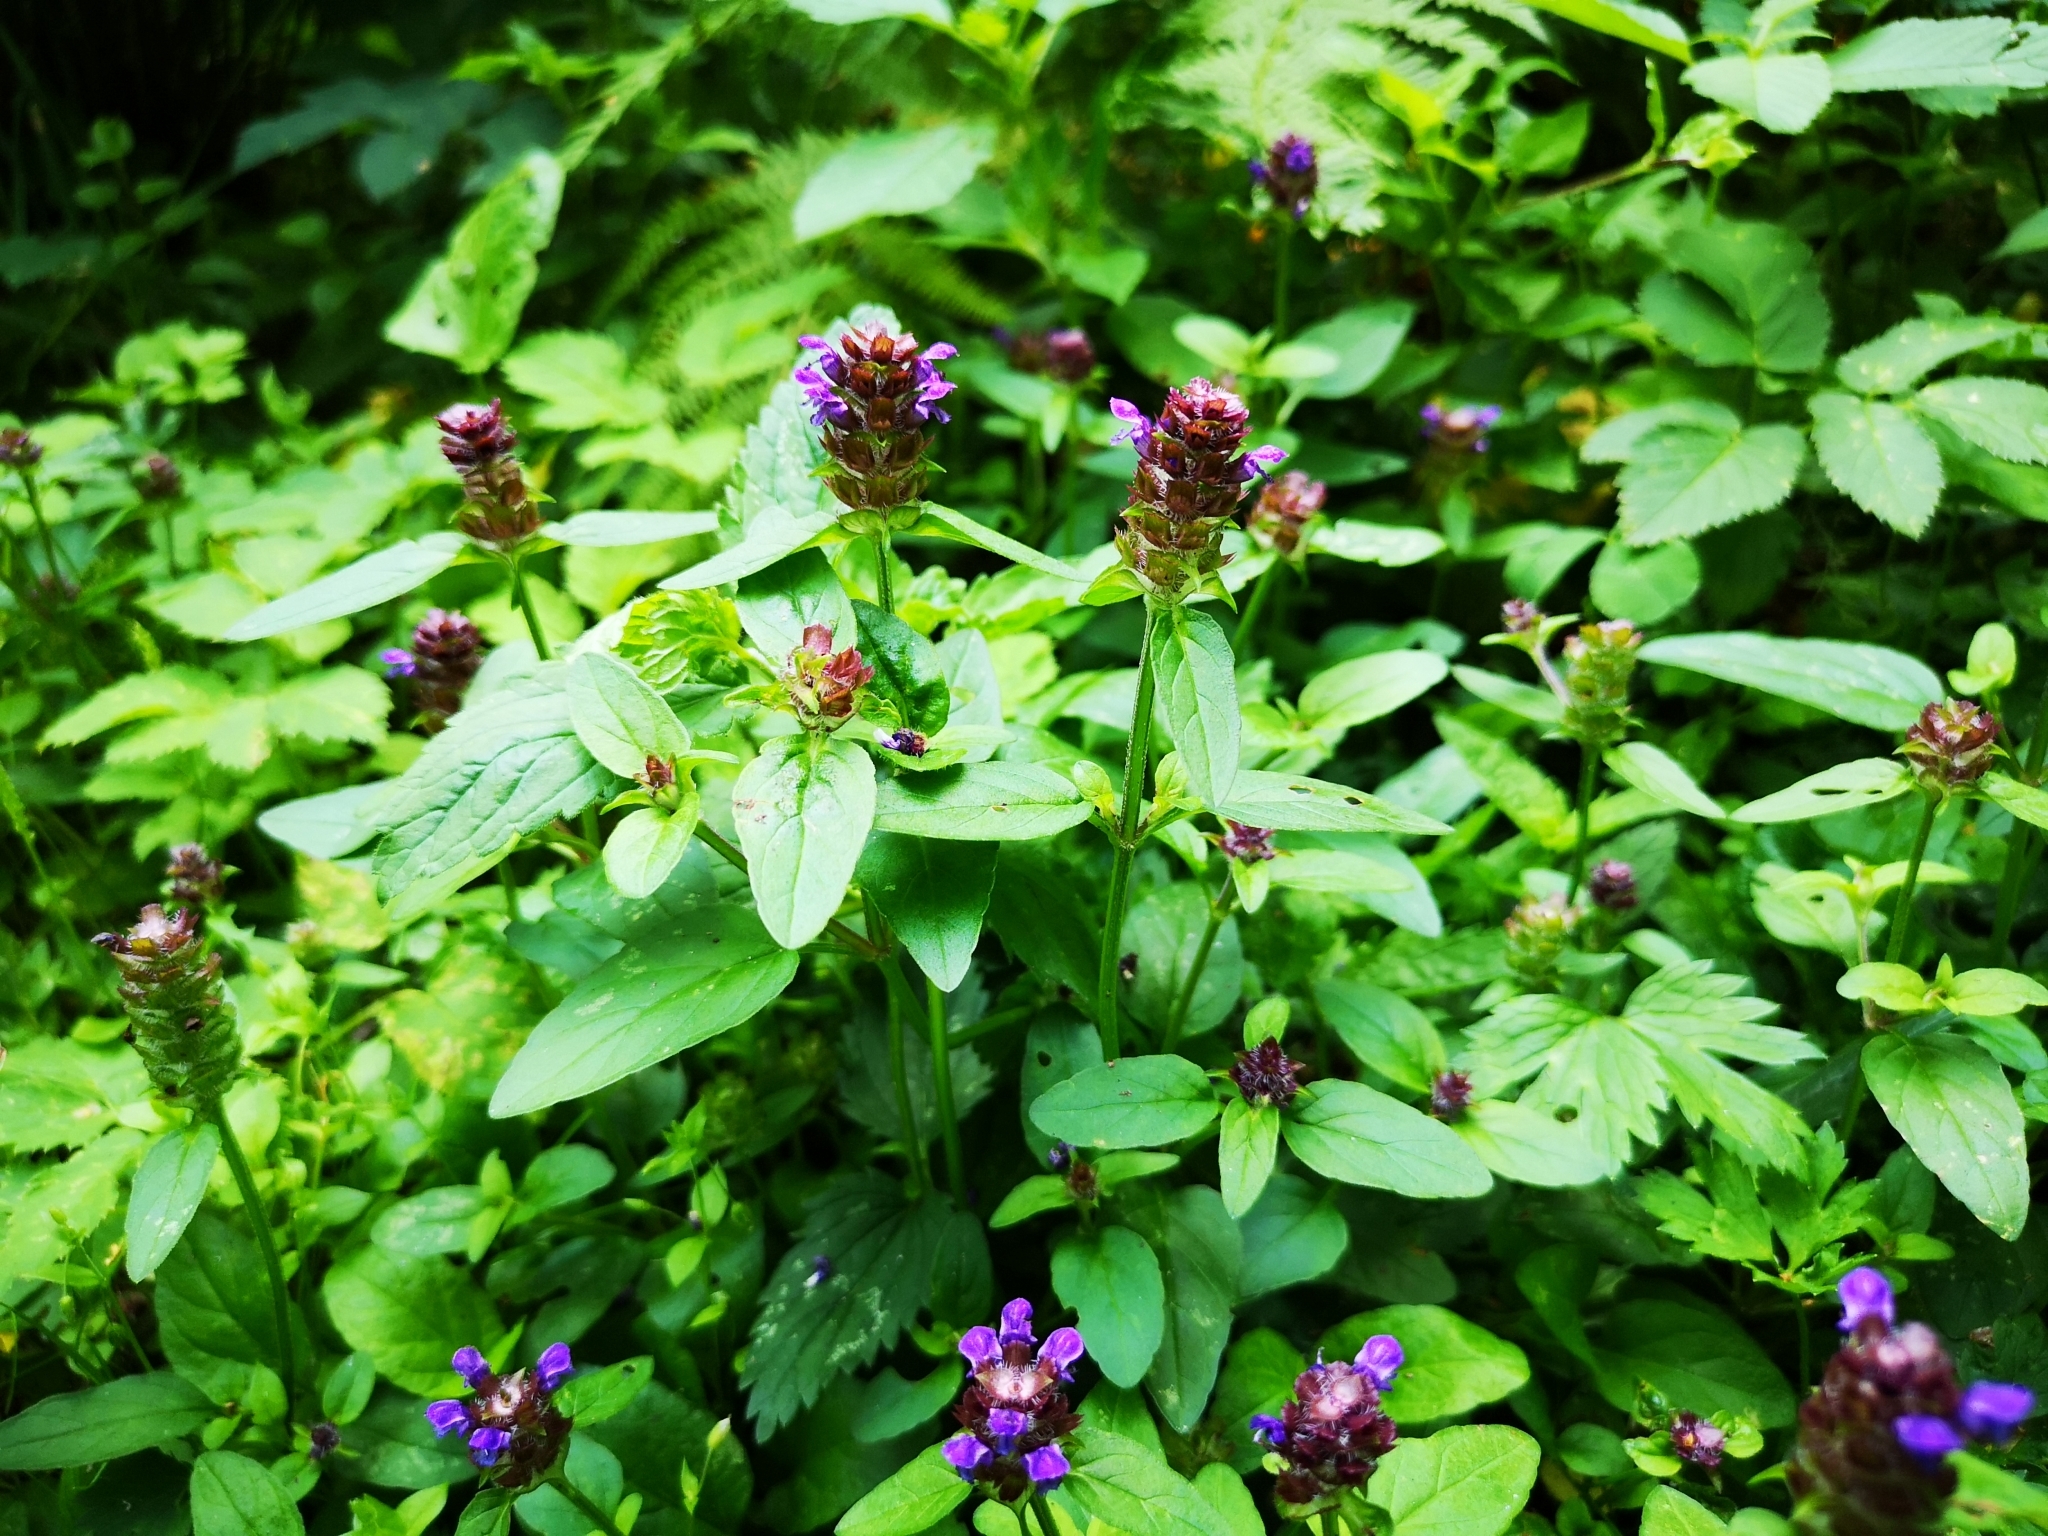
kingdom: Plantae
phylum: Tracheophyta
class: Magnoliopsida
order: Lamiales
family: Lamiaceae
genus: Prunella
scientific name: Prunella vulgaris
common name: Heal-all
